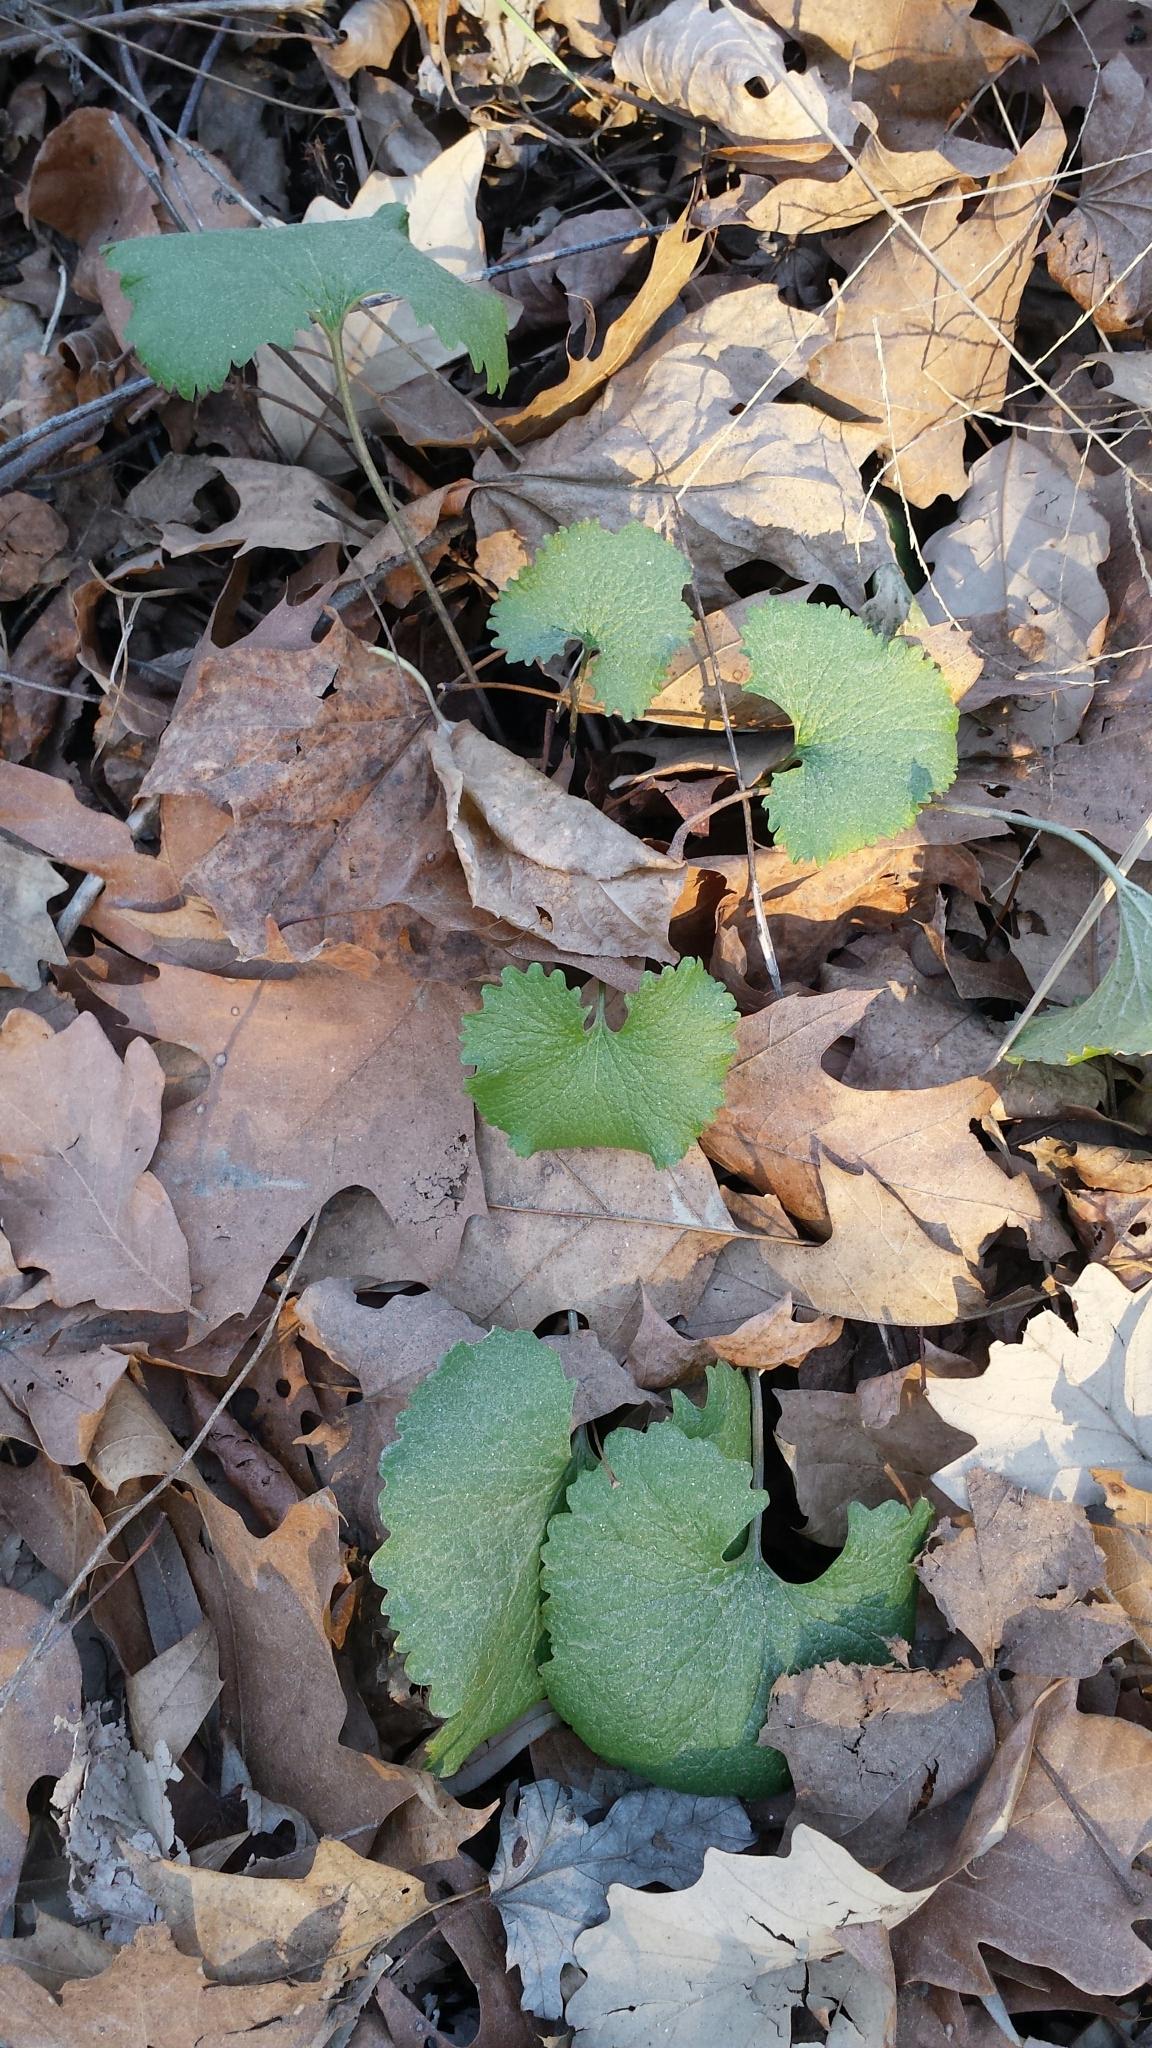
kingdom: Plantae
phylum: Tracheophyta
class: Magnoliopsida
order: Brassicales
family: Brassicaceae
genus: Alliaria
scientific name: Alliaria petiolata
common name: Garlic mustard
